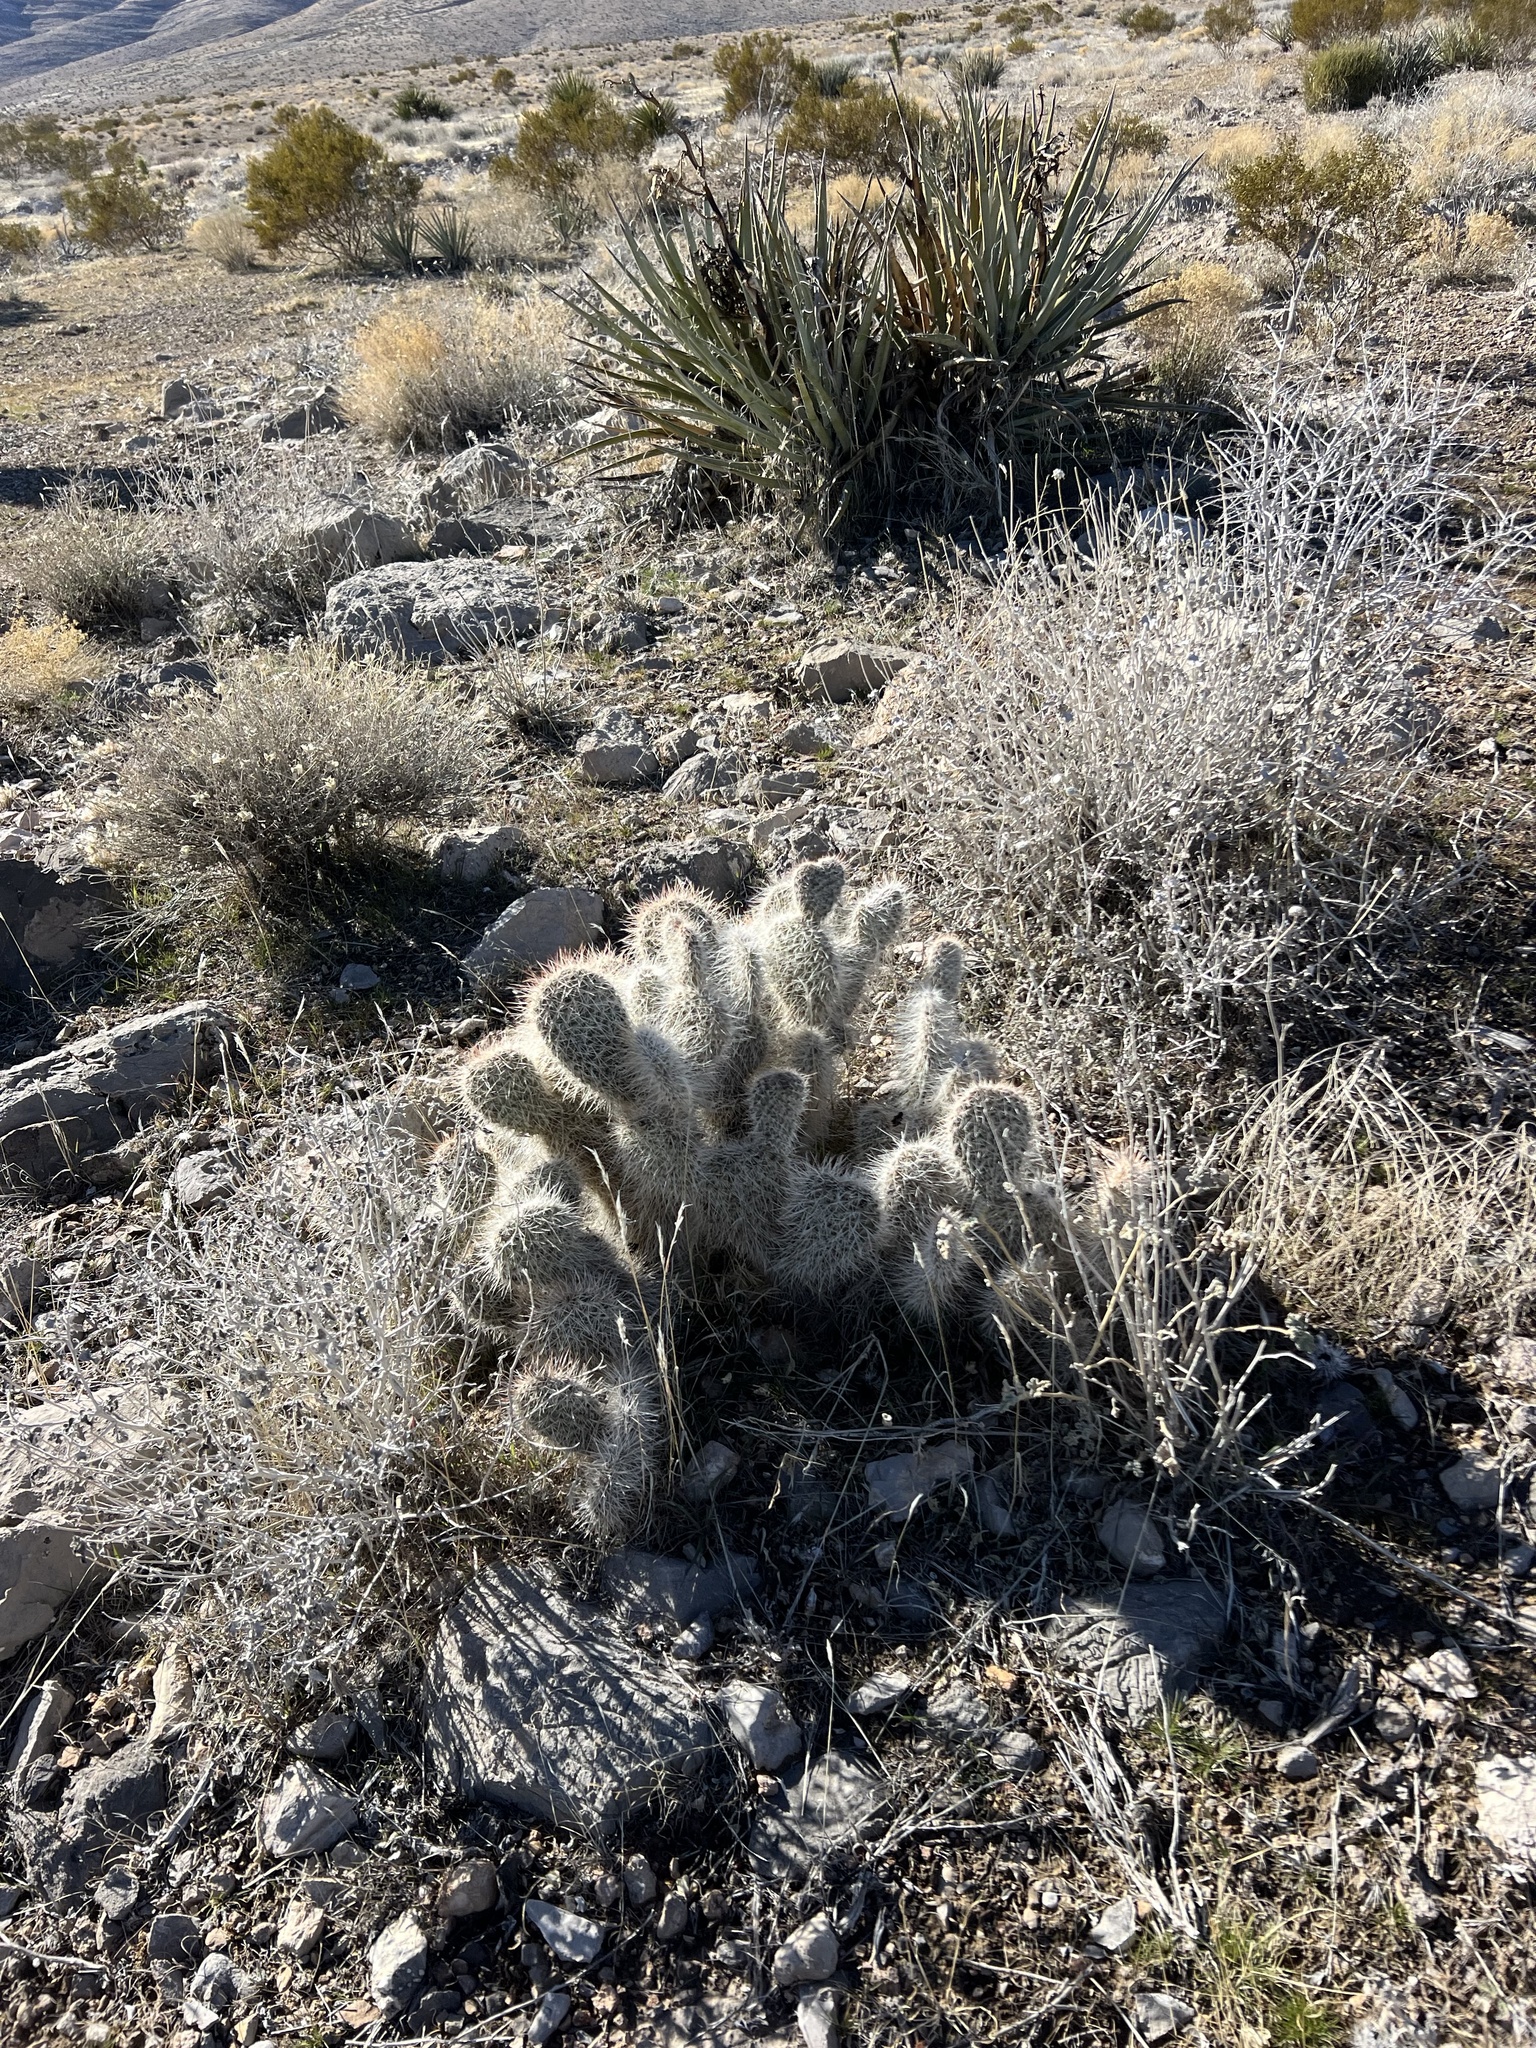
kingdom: Plantae
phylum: Tracheophyta
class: Magnoliopsida
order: Caryophyllales
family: Cactaceae
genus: Opuntia
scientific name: Opuntia polyacantha
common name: Plains prickly-pear
